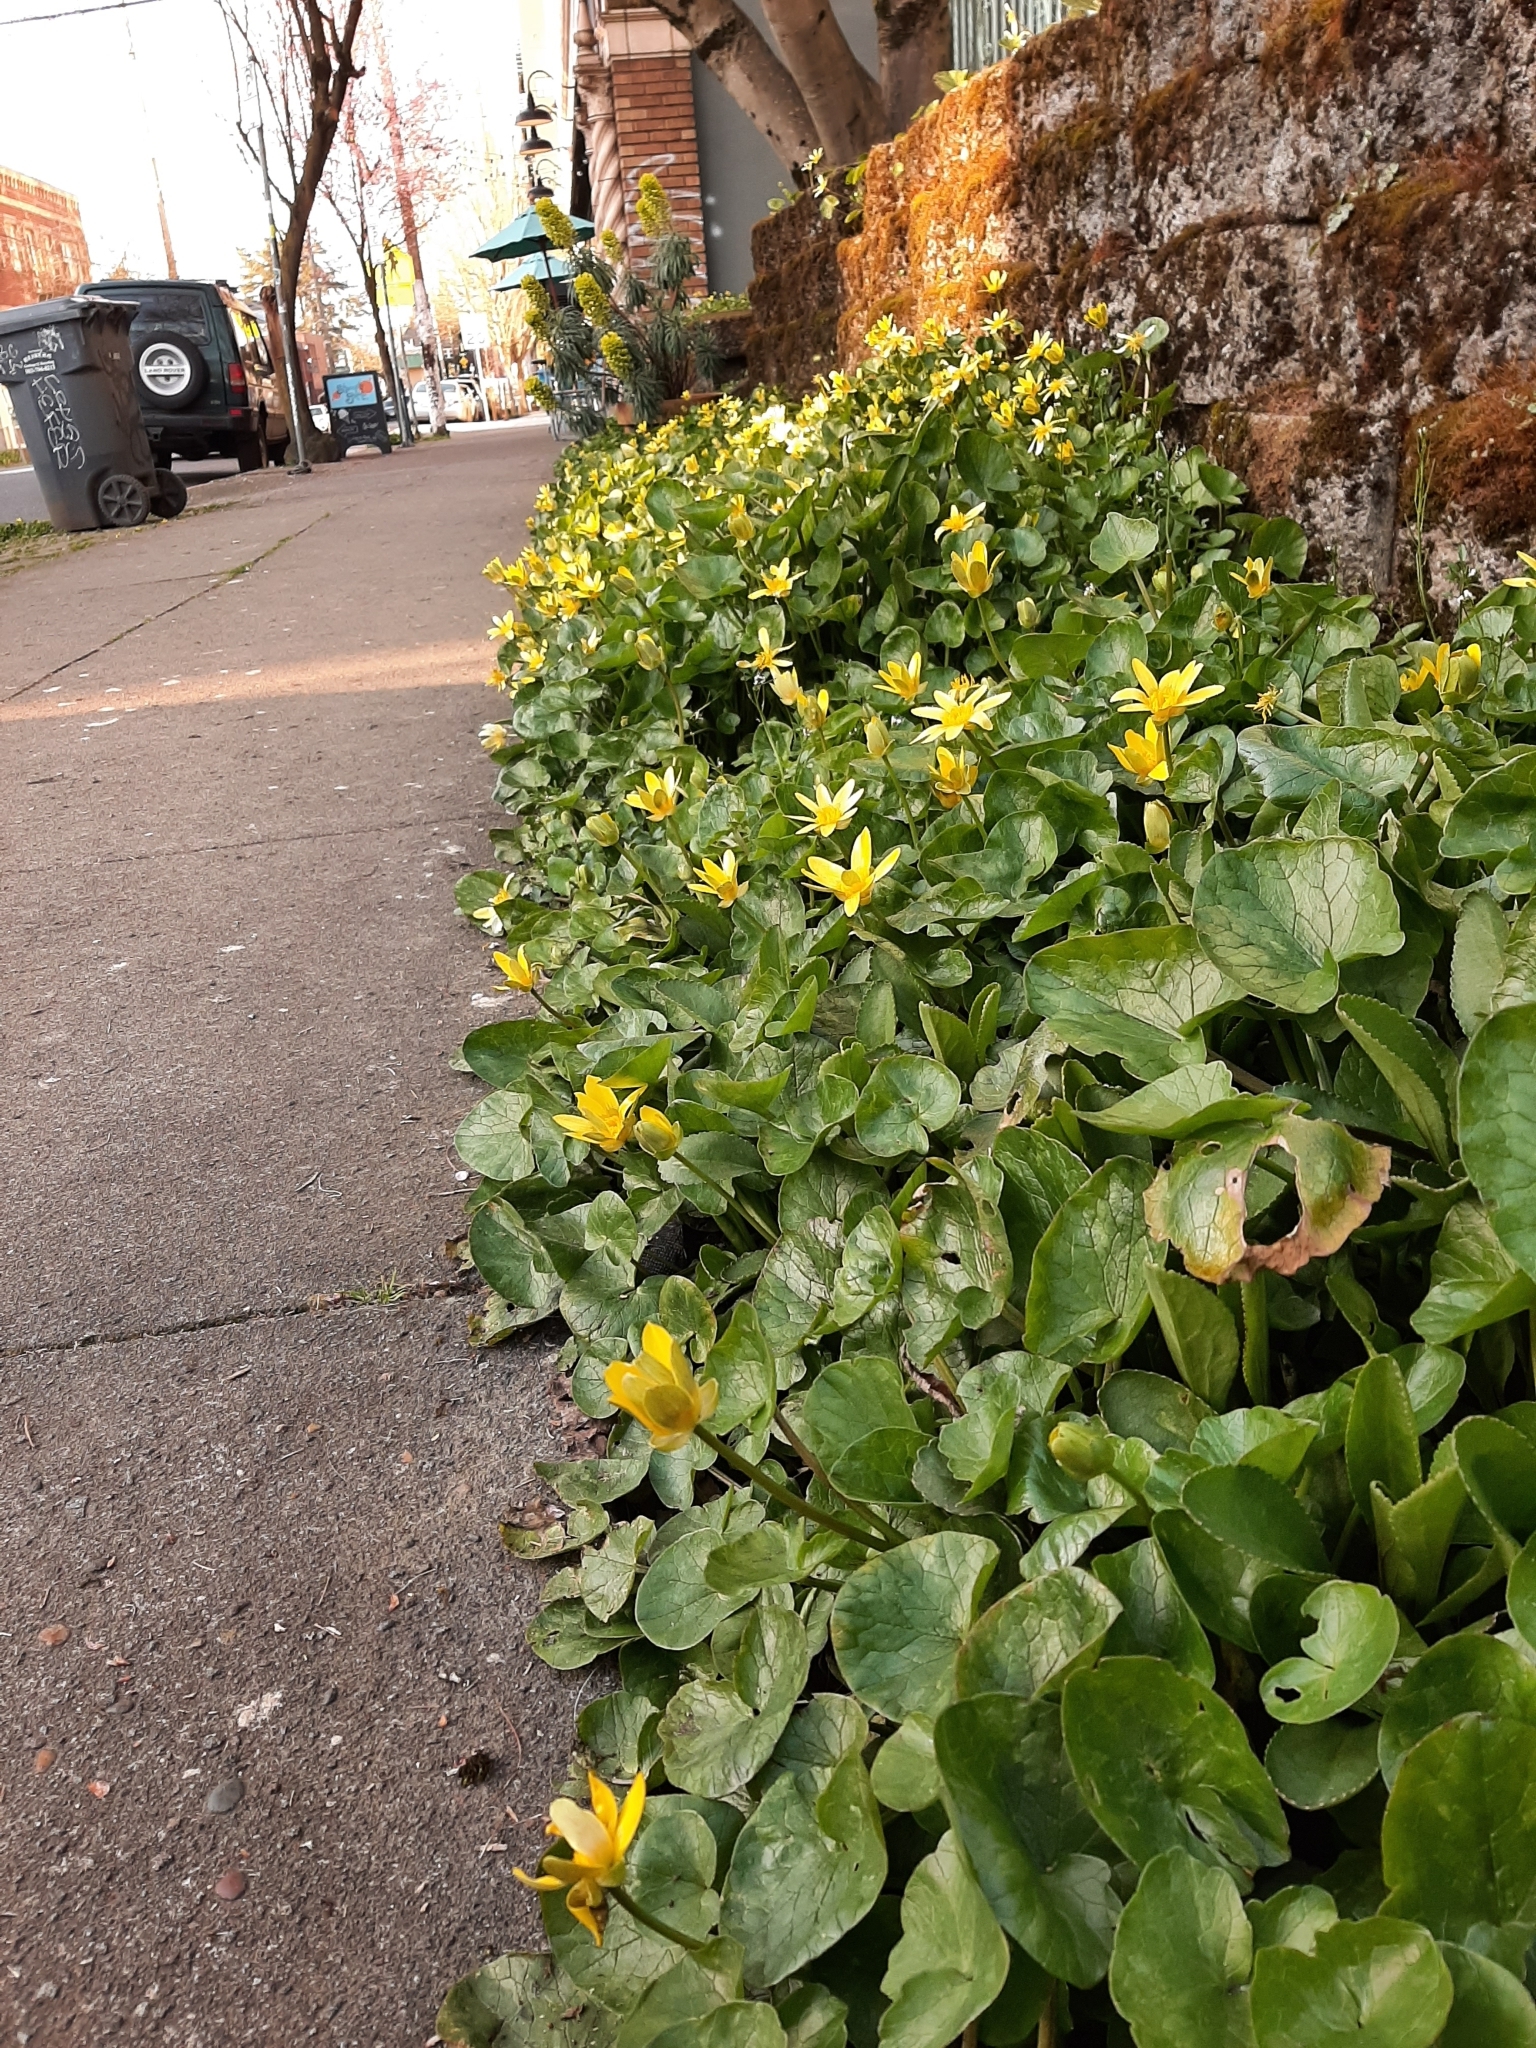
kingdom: Plantae
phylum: Tracheophyta
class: Magnoliopsida
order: Ranunculales
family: Ranunculaceae
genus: Ficaria
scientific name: Ficaria verna
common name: Lesser celandine
